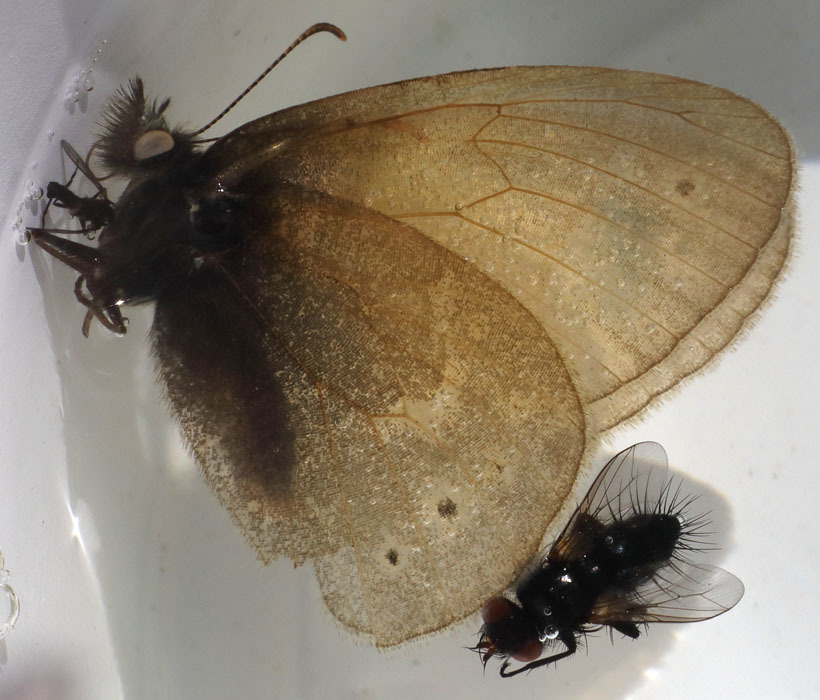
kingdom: Animalia
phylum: Arthropoda
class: Insecta
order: Lepidoptera
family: Nymphalidae
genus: Coenonympha
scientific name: Coenonympha california
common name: Common ringlet
